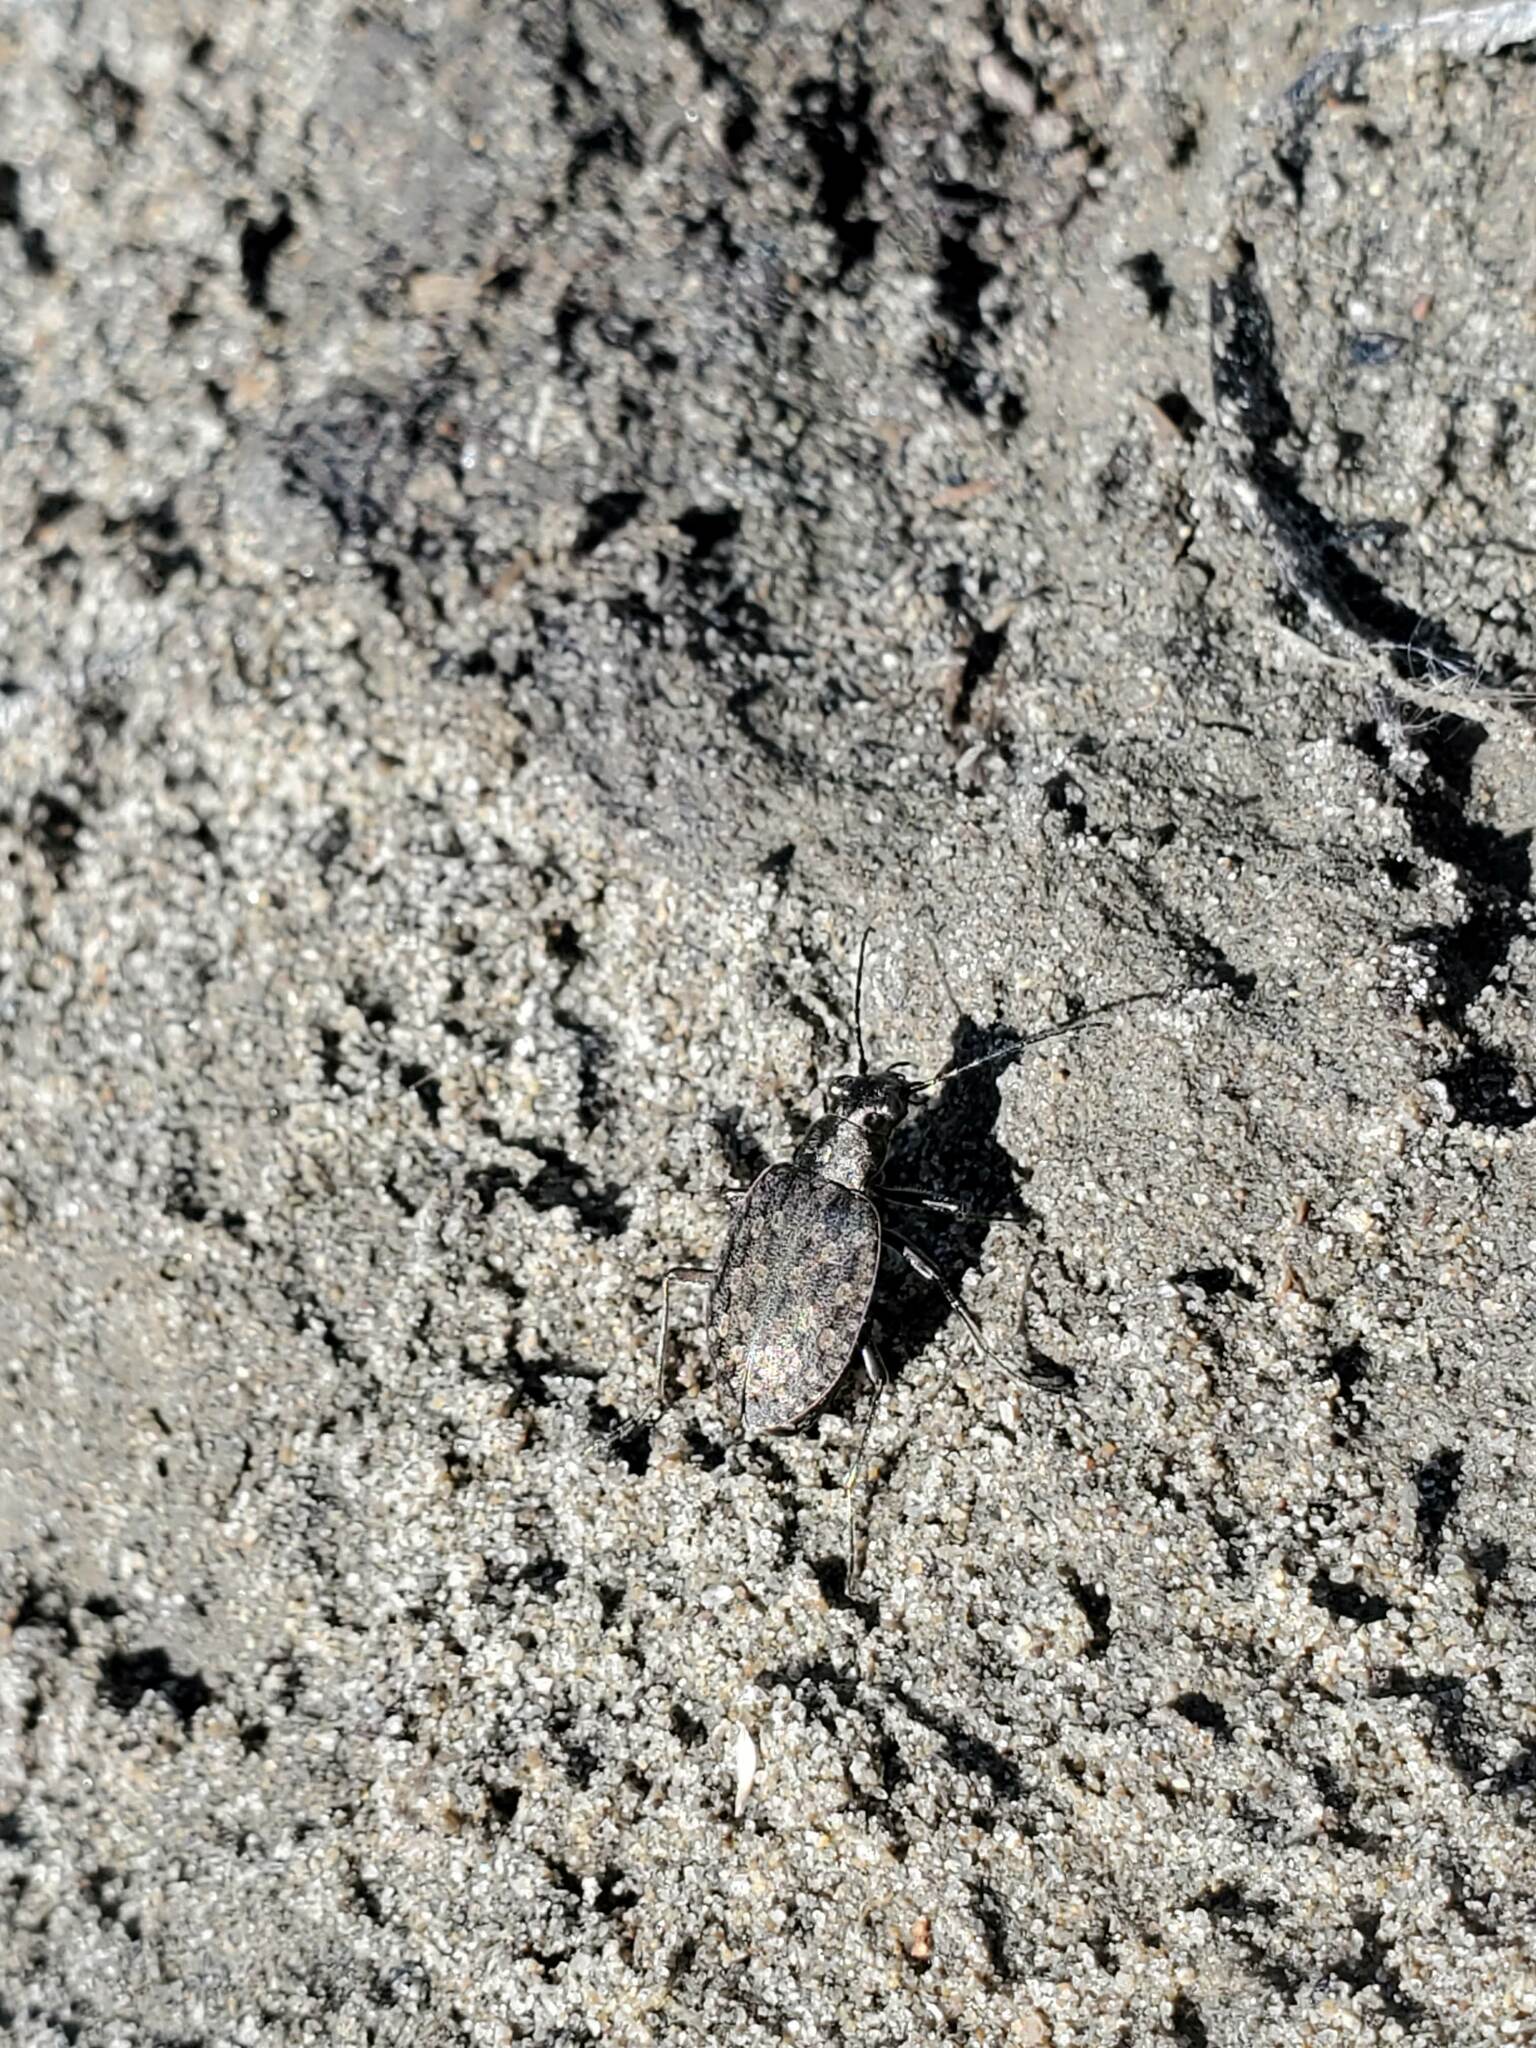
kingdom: Animalia
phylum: Arthropoda
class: Insecta
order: Coleoptera
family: Carabidae
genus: Opisthius
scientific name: Opisthius richardsoni
